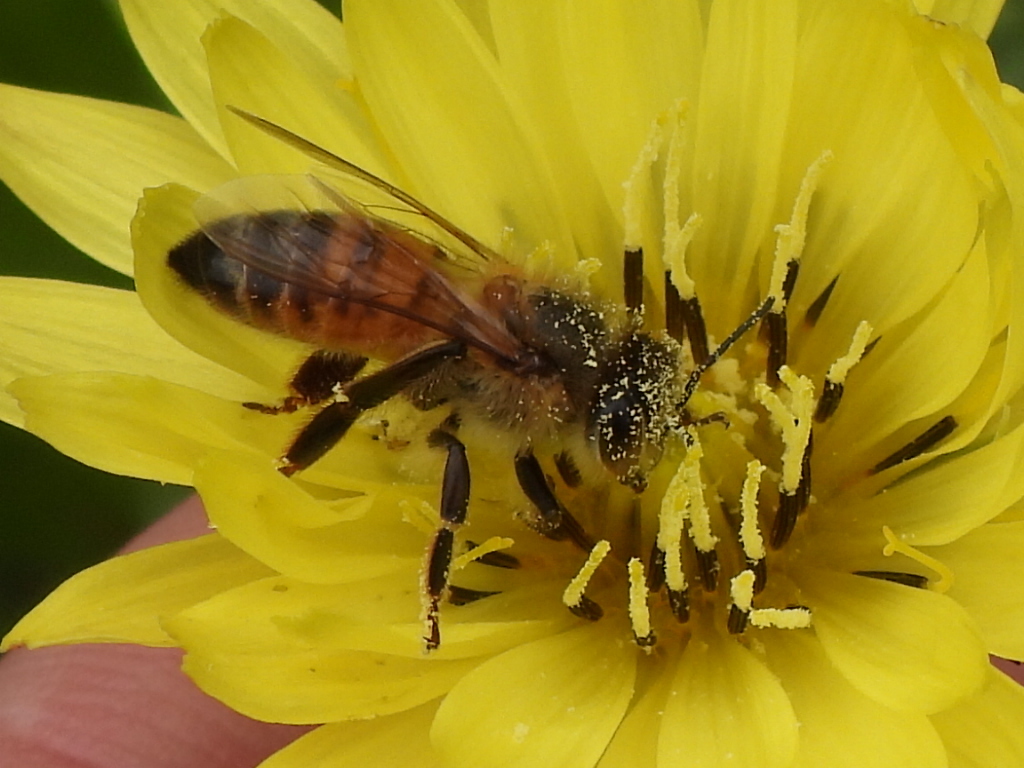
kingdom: Animalia
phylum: Arthropoda
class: Insecta
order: Hymenoptera
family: Apidae
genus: Apis
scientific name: Apis mellifera
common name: Honey bee
